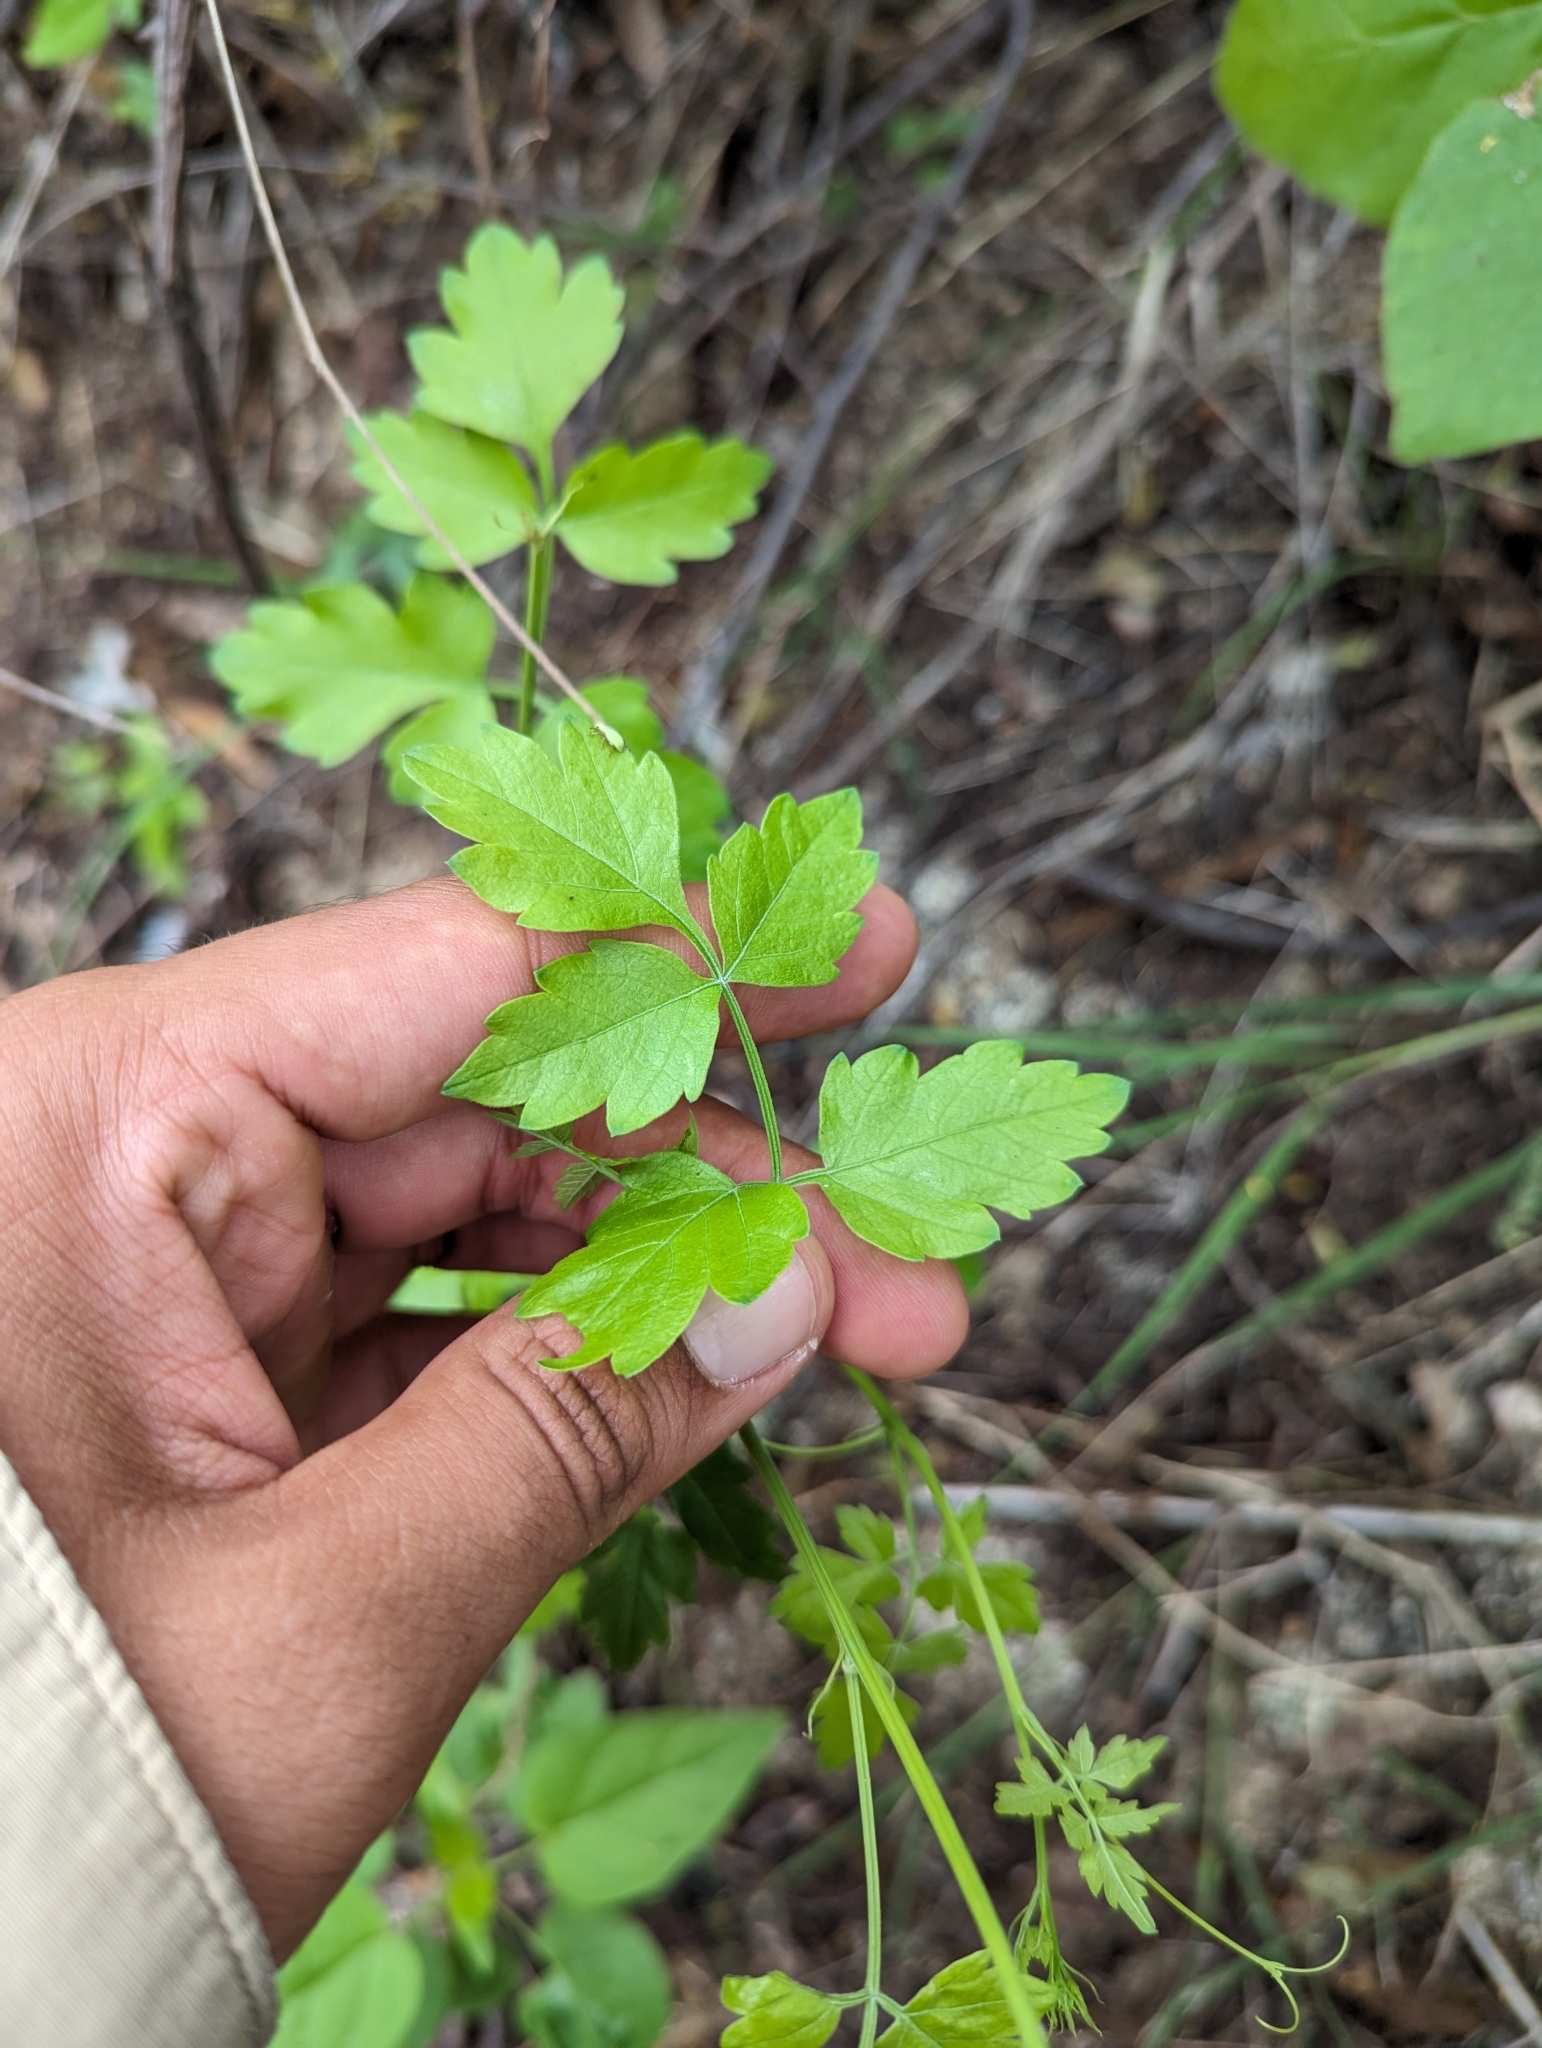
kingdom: Plantae
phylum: Tracheophyta
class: Magnoliopsida
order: Sapindales
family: Sapindaceae
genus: Cardiospermum
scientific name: Cardiospermum corindum
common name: Faux persil
